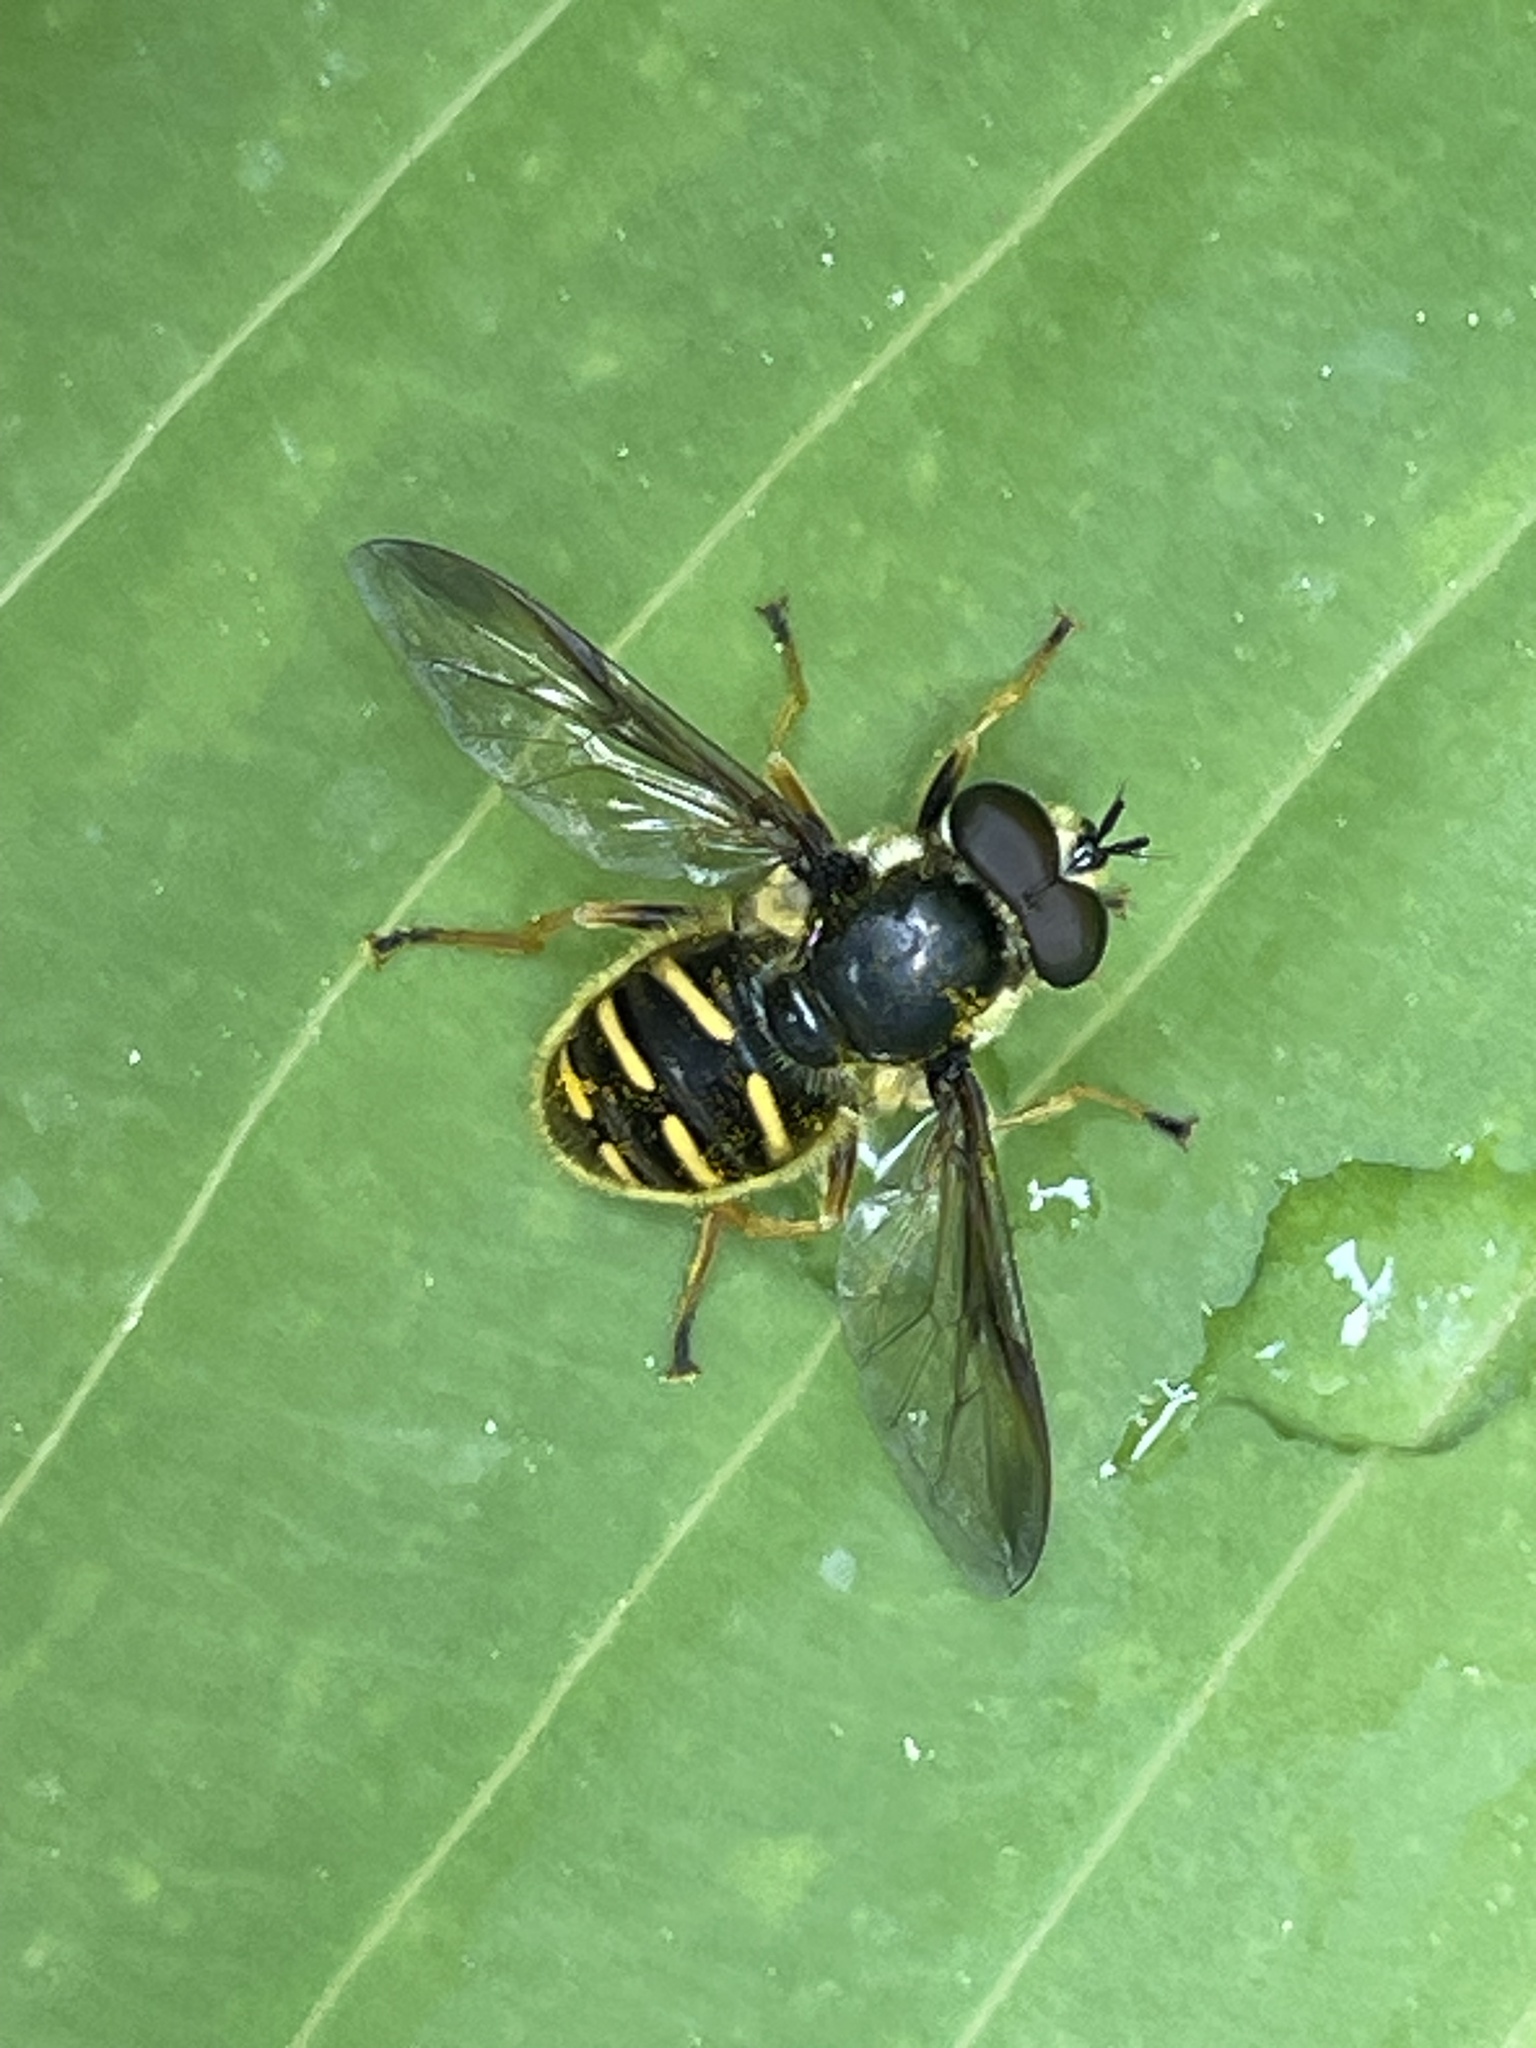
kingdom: Animalia
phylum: Arthropoda
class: Insecta
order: Diptera
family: Syrphidae
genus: Sericomyia
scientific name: Sericomyia chrysotoxoides
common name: Oblique-banded pond fly
